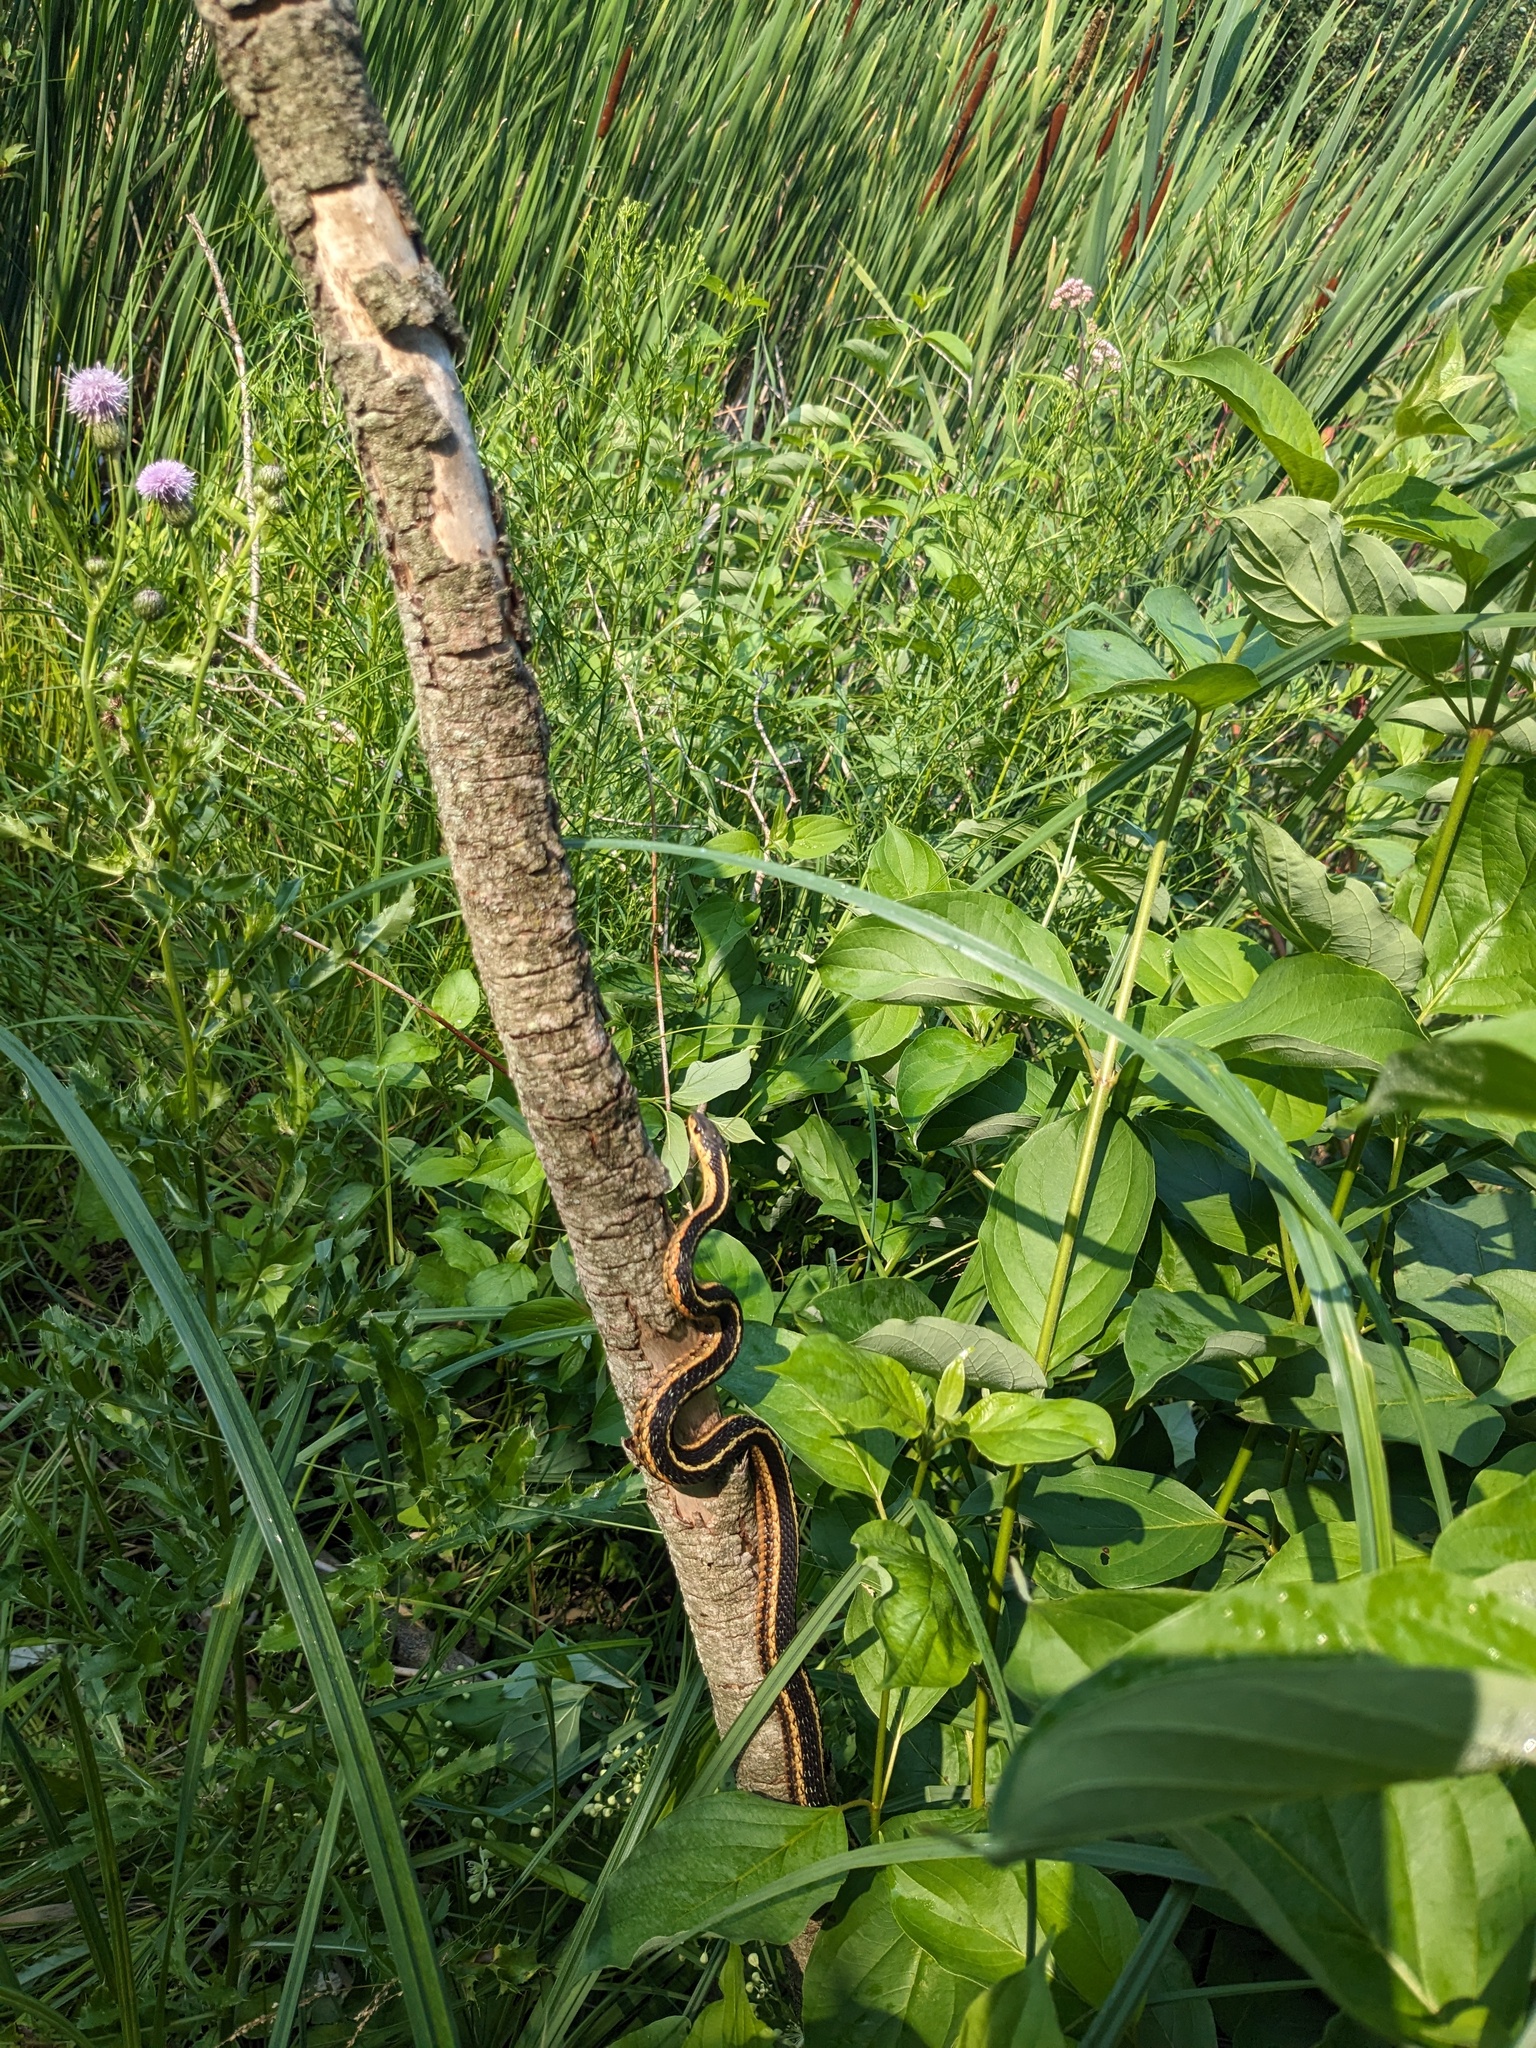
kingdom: Animalia
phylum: Chordata
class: Squamata
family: Colubridae
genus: Thamnophis
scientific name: Thamnophis sirtalis
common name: Common garter snake
